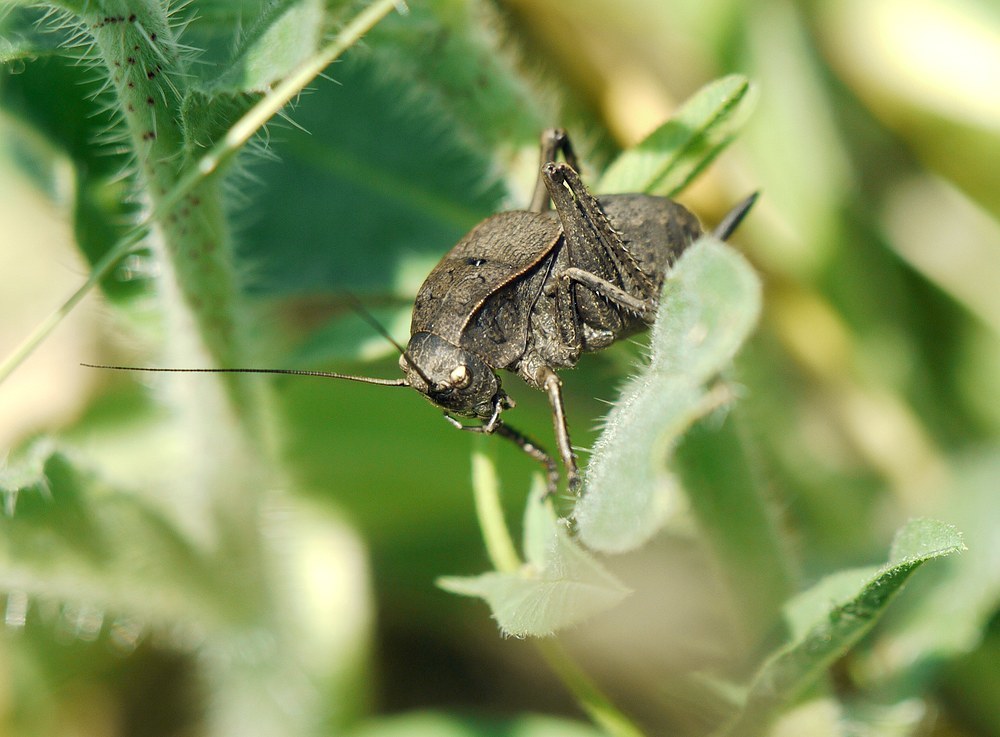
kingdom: Animalia
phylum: Arthropoda
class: Insecta
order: Orthoptera
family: Tettigoniidae
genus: Onconotus
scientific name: Onconotus servillei
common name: Southern barbed-wire bush-cricket
